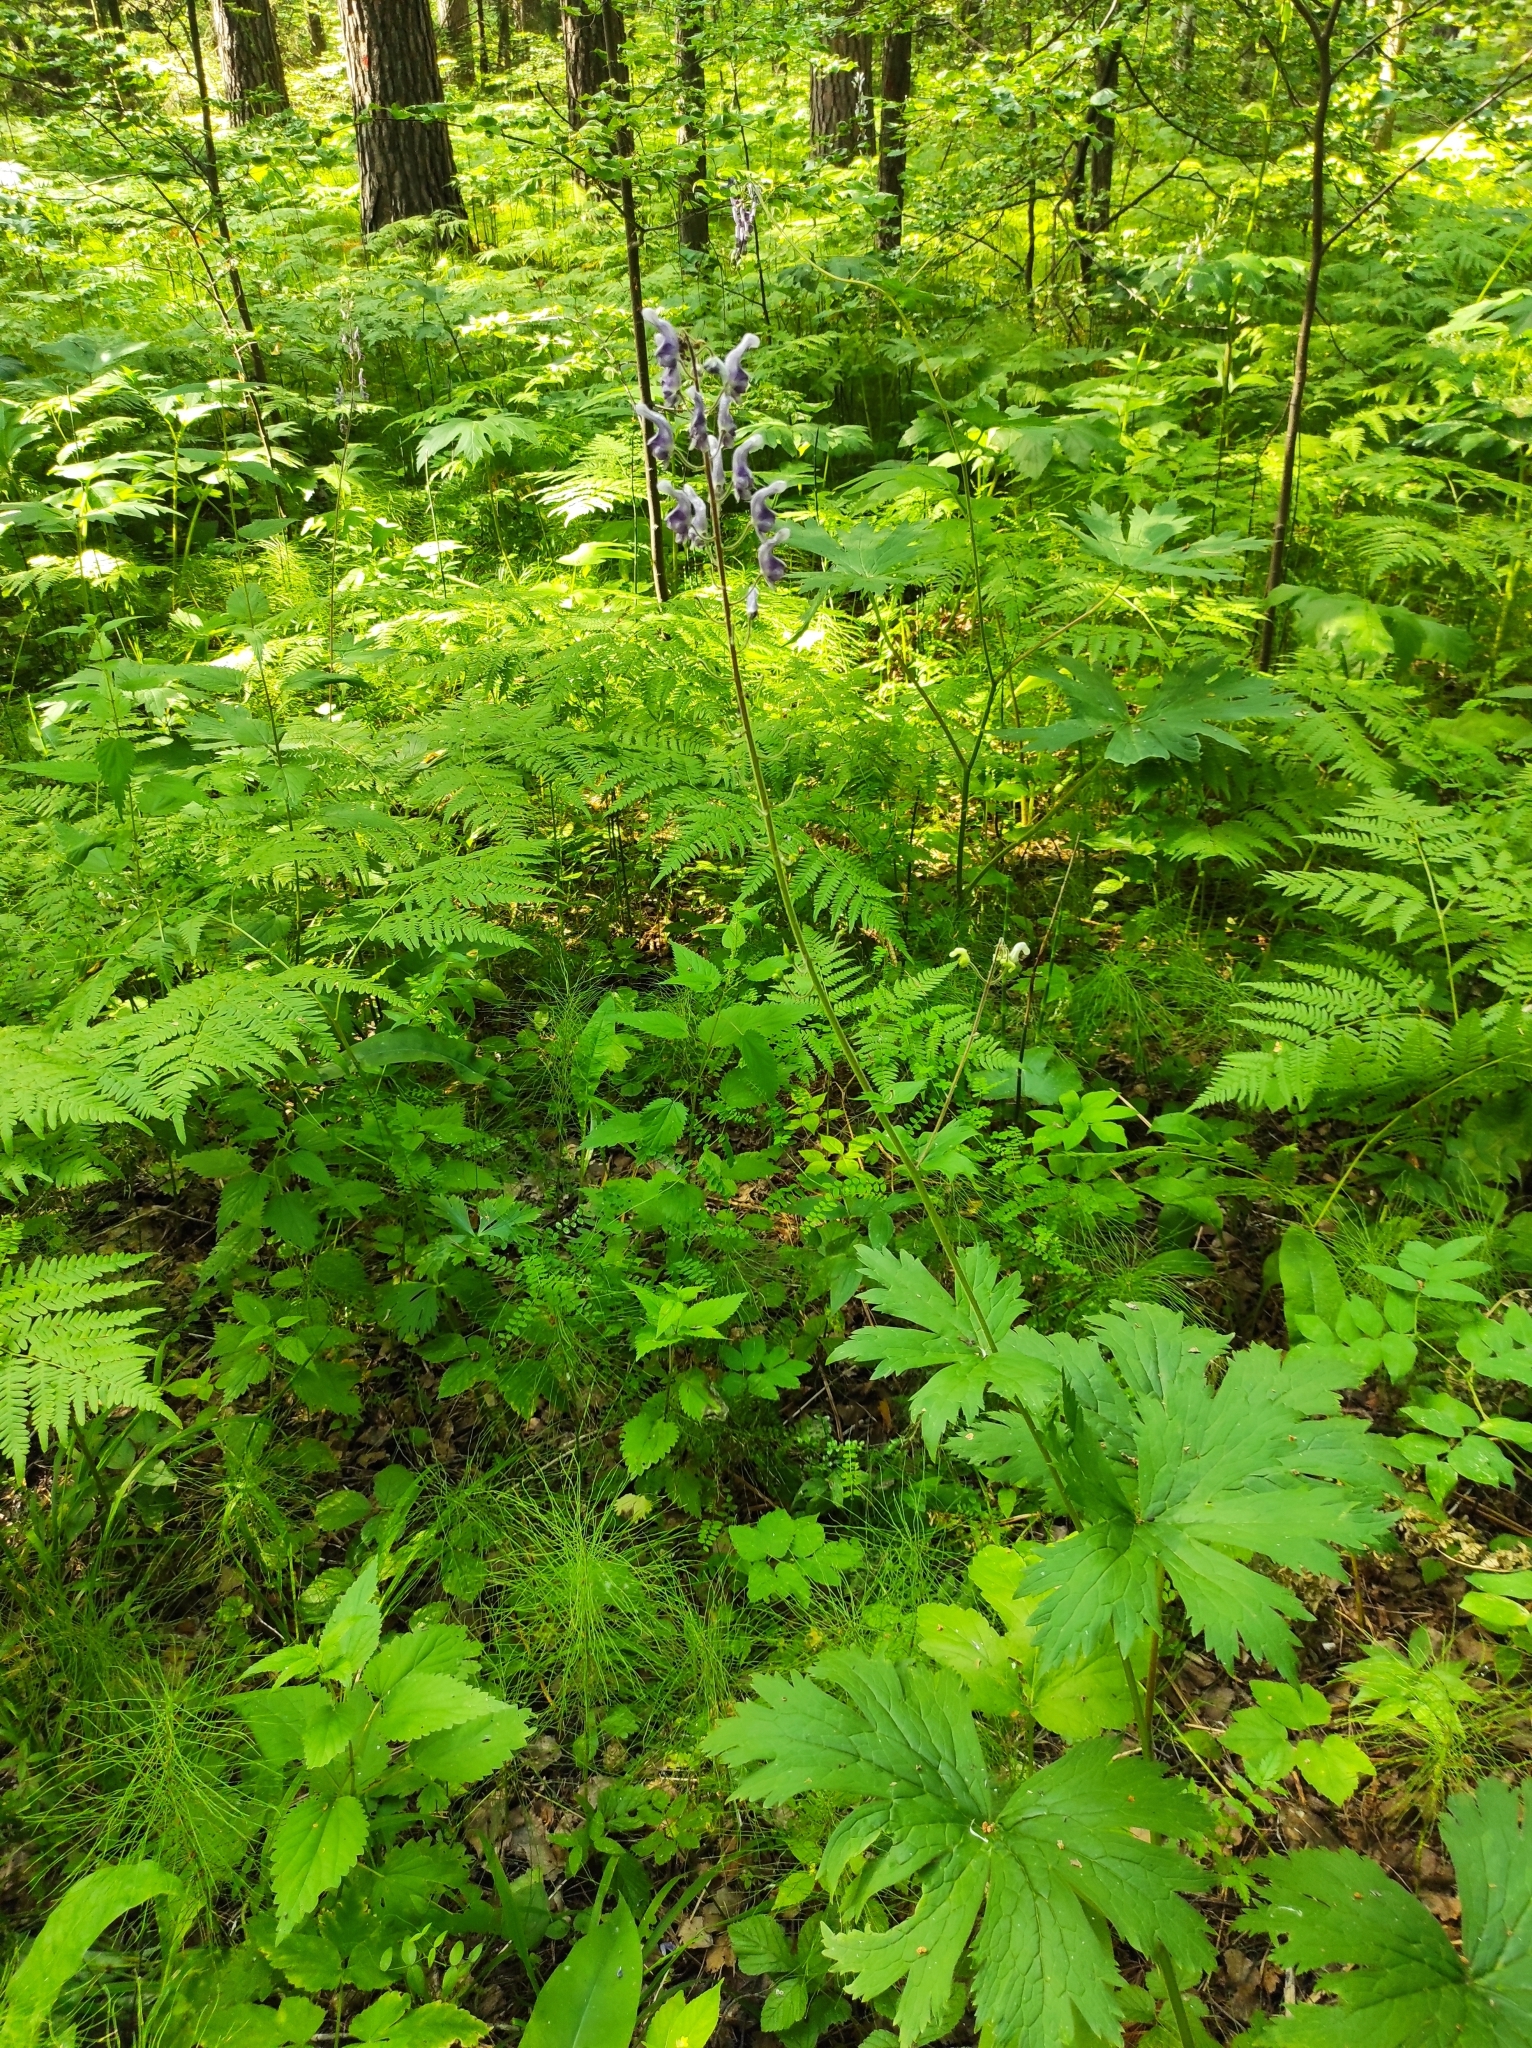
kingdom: Plantae
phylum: Tracheophyta
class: Magnoliopsida
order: Ranunculales
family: Ranunculaceae
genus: Aconitum
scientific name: Aconitum septentrionale
